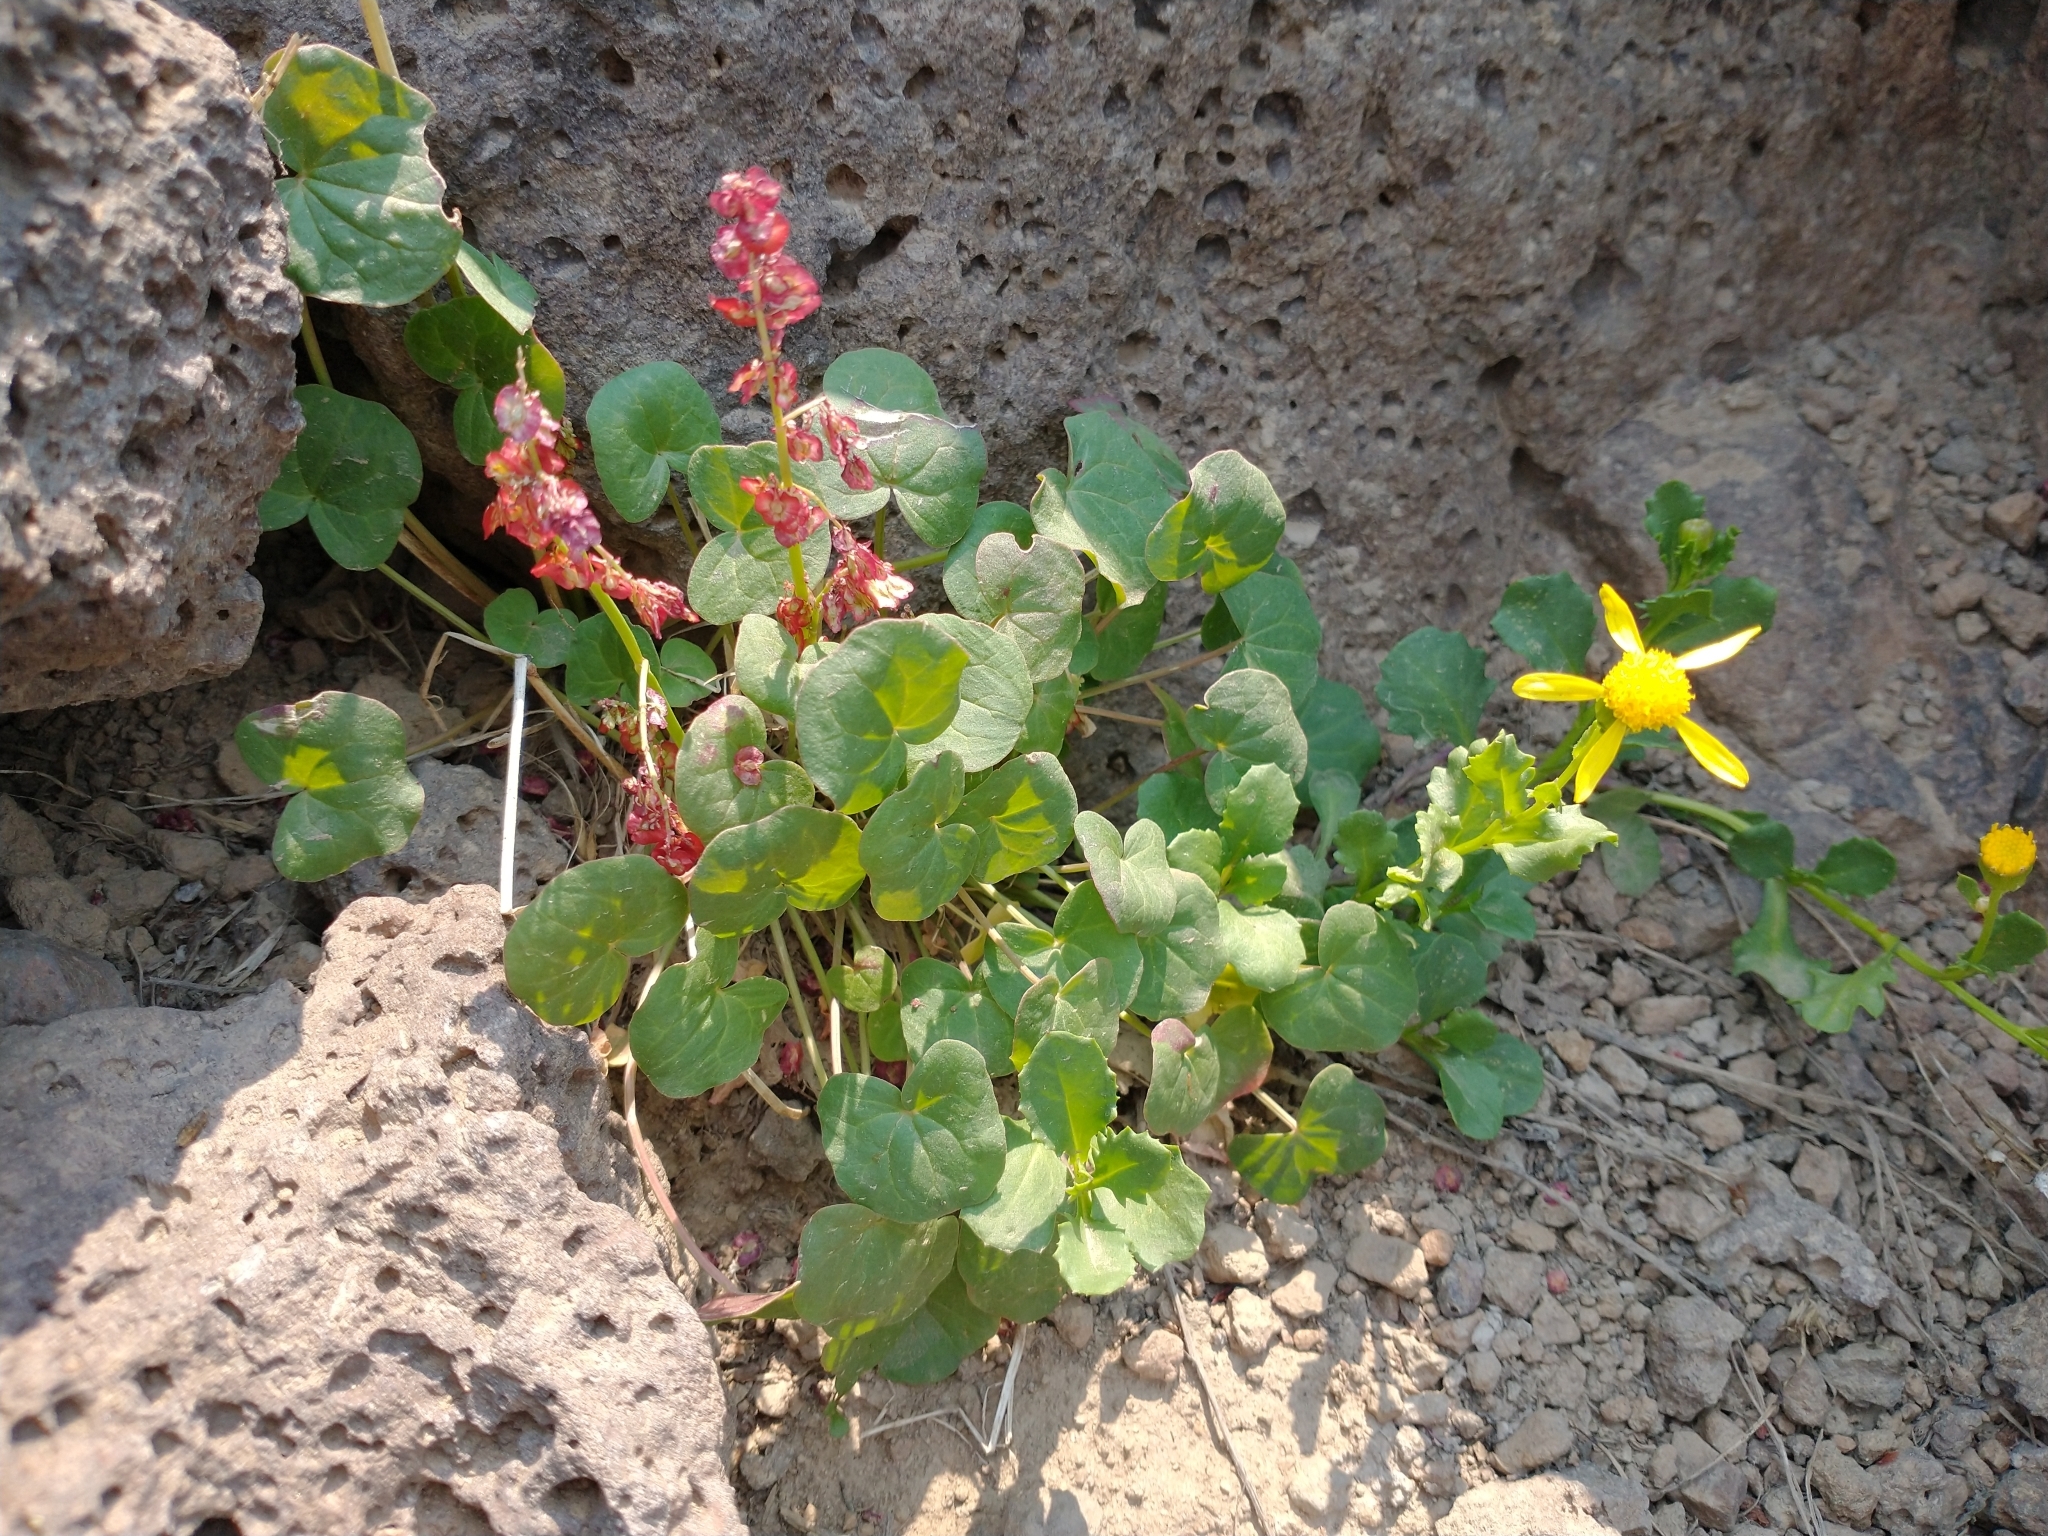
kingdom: Plantae
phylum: Tracheophyta
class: Magnoliopsida
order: Caryophyllales
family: Polygonaceae
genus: Oxyria
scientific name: Oxyria digyna
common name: Alpine mountain-sorrel
